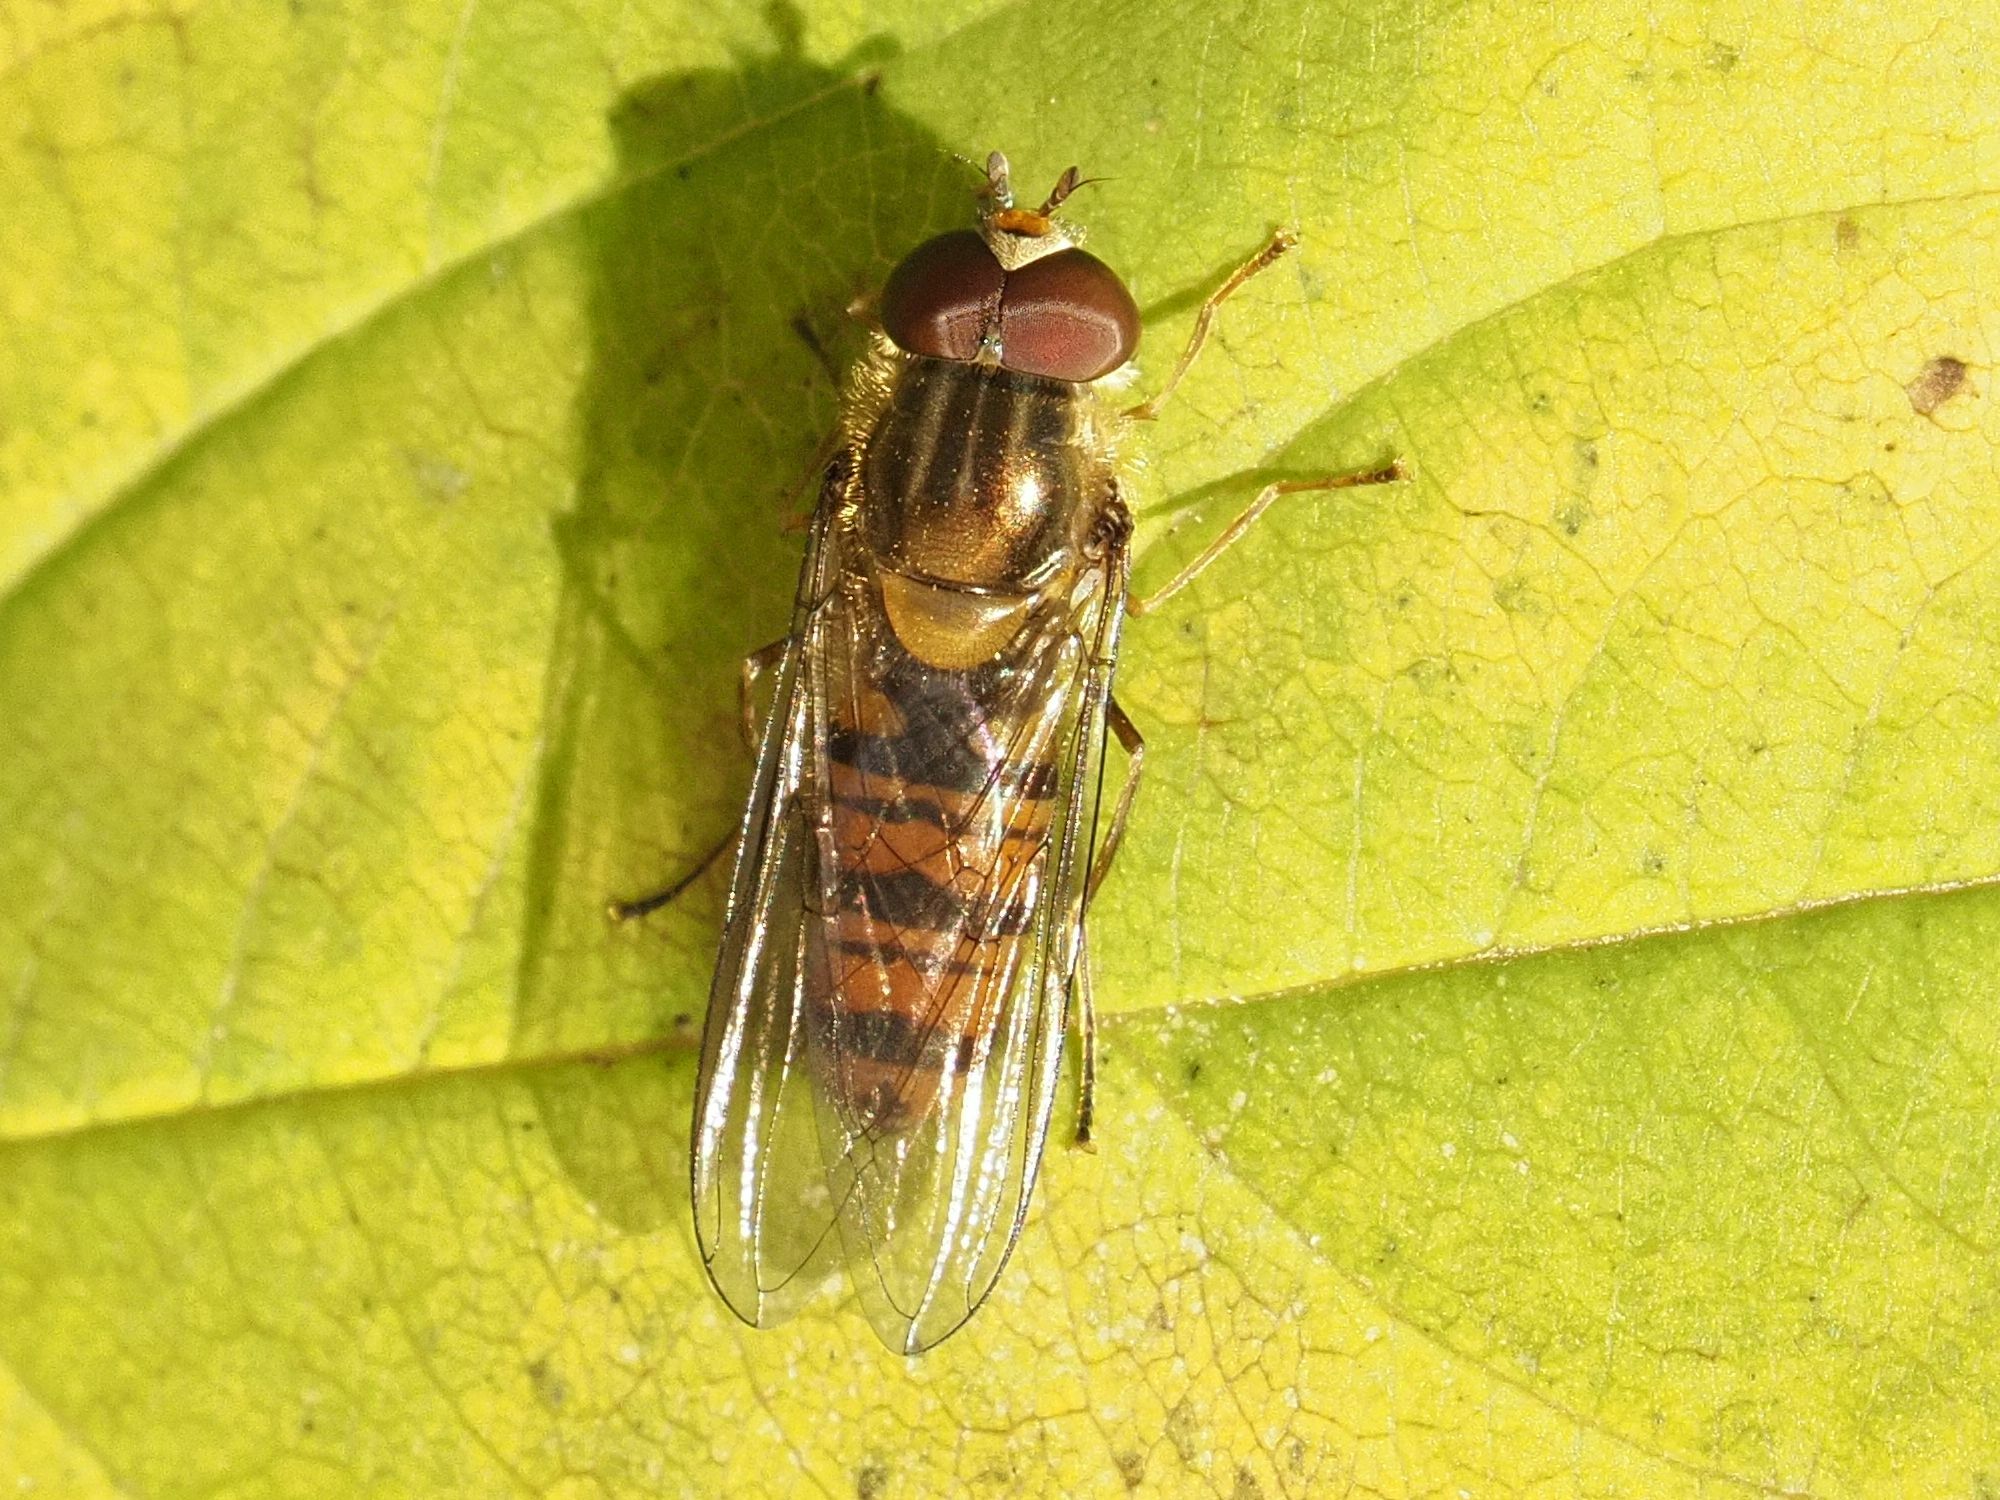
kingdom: Animalia
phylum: Arthropoda
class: Insecta
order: Diptera
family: Syrphidae
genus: Episyrphus
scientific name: Episyrphus balteatus
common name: Marmalade hoverfly
